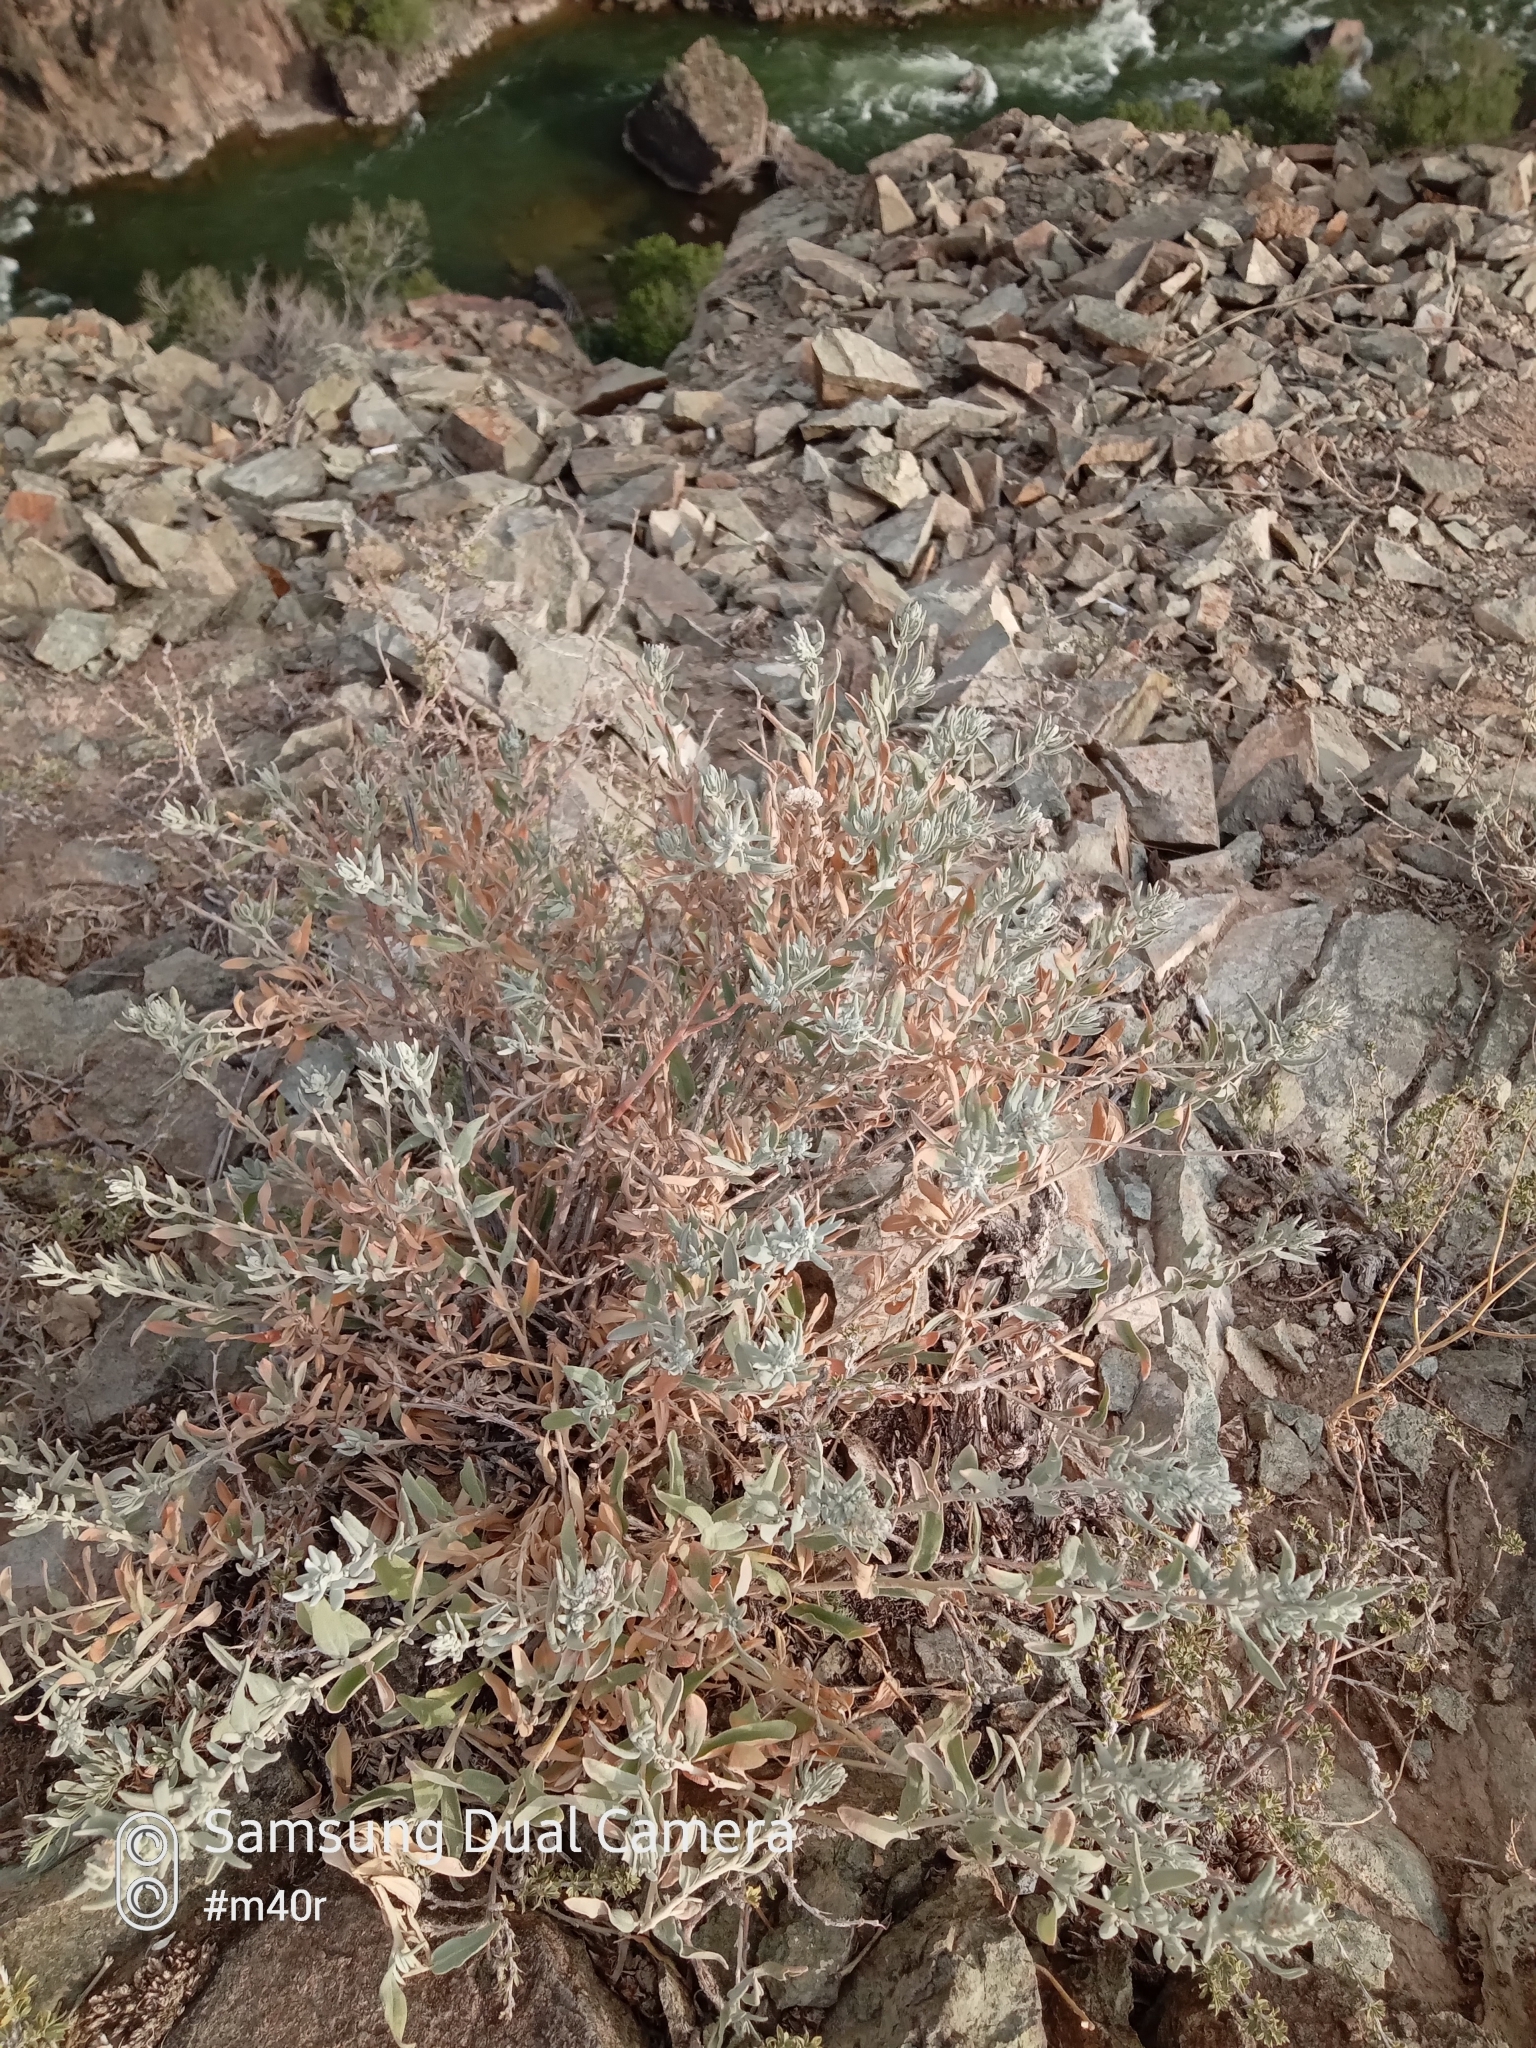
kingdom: Plantae
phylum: Tracheophyta
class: Magnoliopsida
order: Caryophyllales
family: Amaranthaceae
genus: Krascheninnikovia
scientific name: Krascheninnikovia ceratoides
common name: Pamirian winterfat
